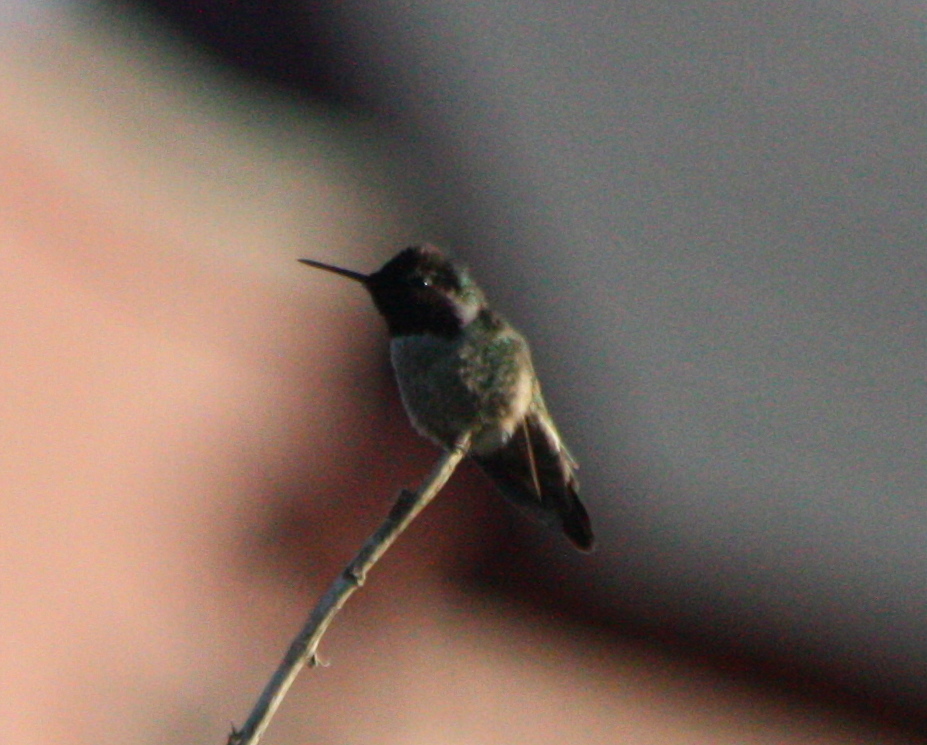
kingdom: Animalia
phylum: Chordata
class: Aves
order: Apodiformes
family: Trochilidae
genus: Calypte
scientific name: Calypte anna
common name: Anna's hummingbird
